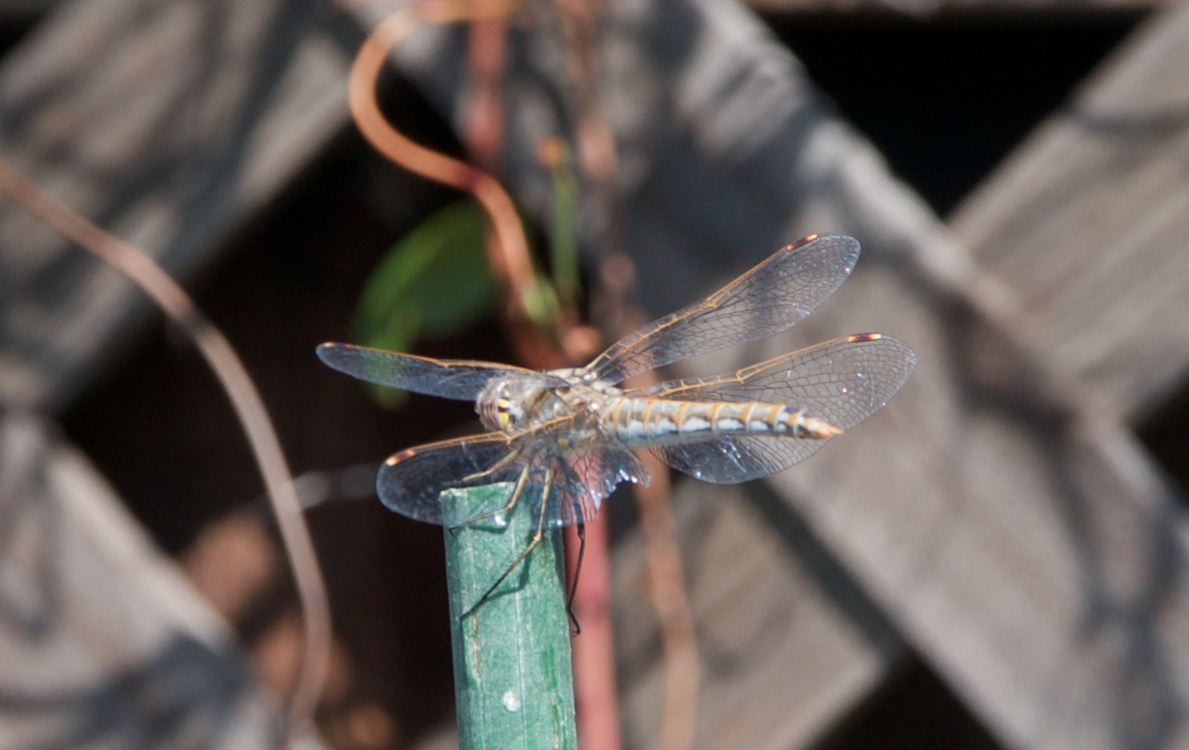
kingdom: Animalia
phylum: Arthropoda
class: Insecta
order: Odonata
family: Libellulidae
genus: Sympetrum
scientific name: Sympetrum corruptum
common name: Variegated meadowhawk
